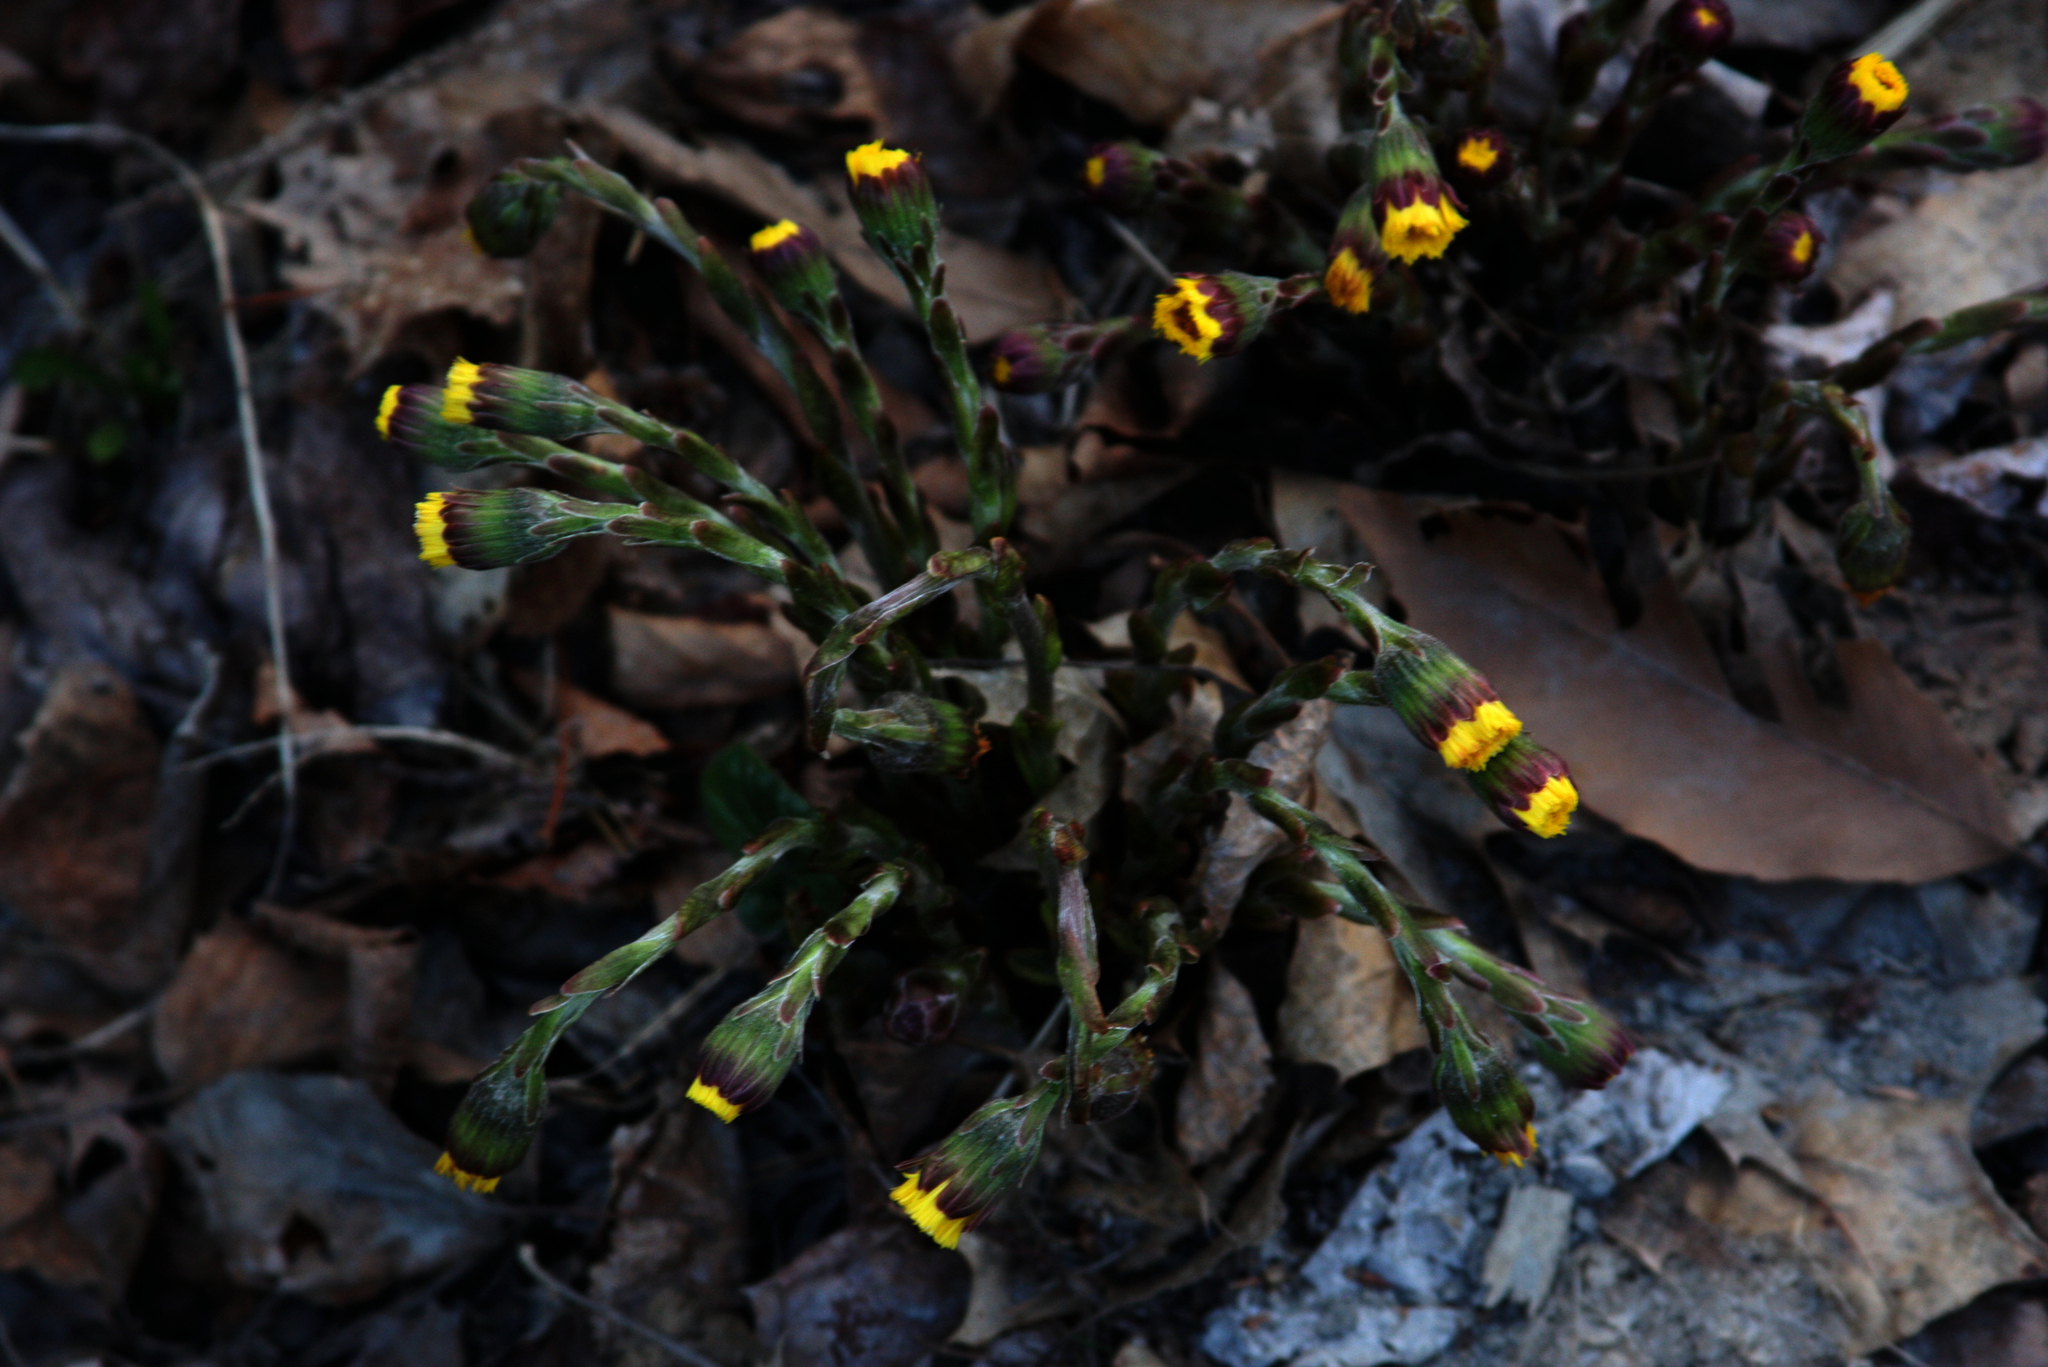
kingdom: Plantae
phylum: Tracheophyta
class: Magnoliopsida
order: Asterales
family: Asteraceae
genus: Tussilago
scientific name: Tussilago farfara
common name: Coltsfoot
